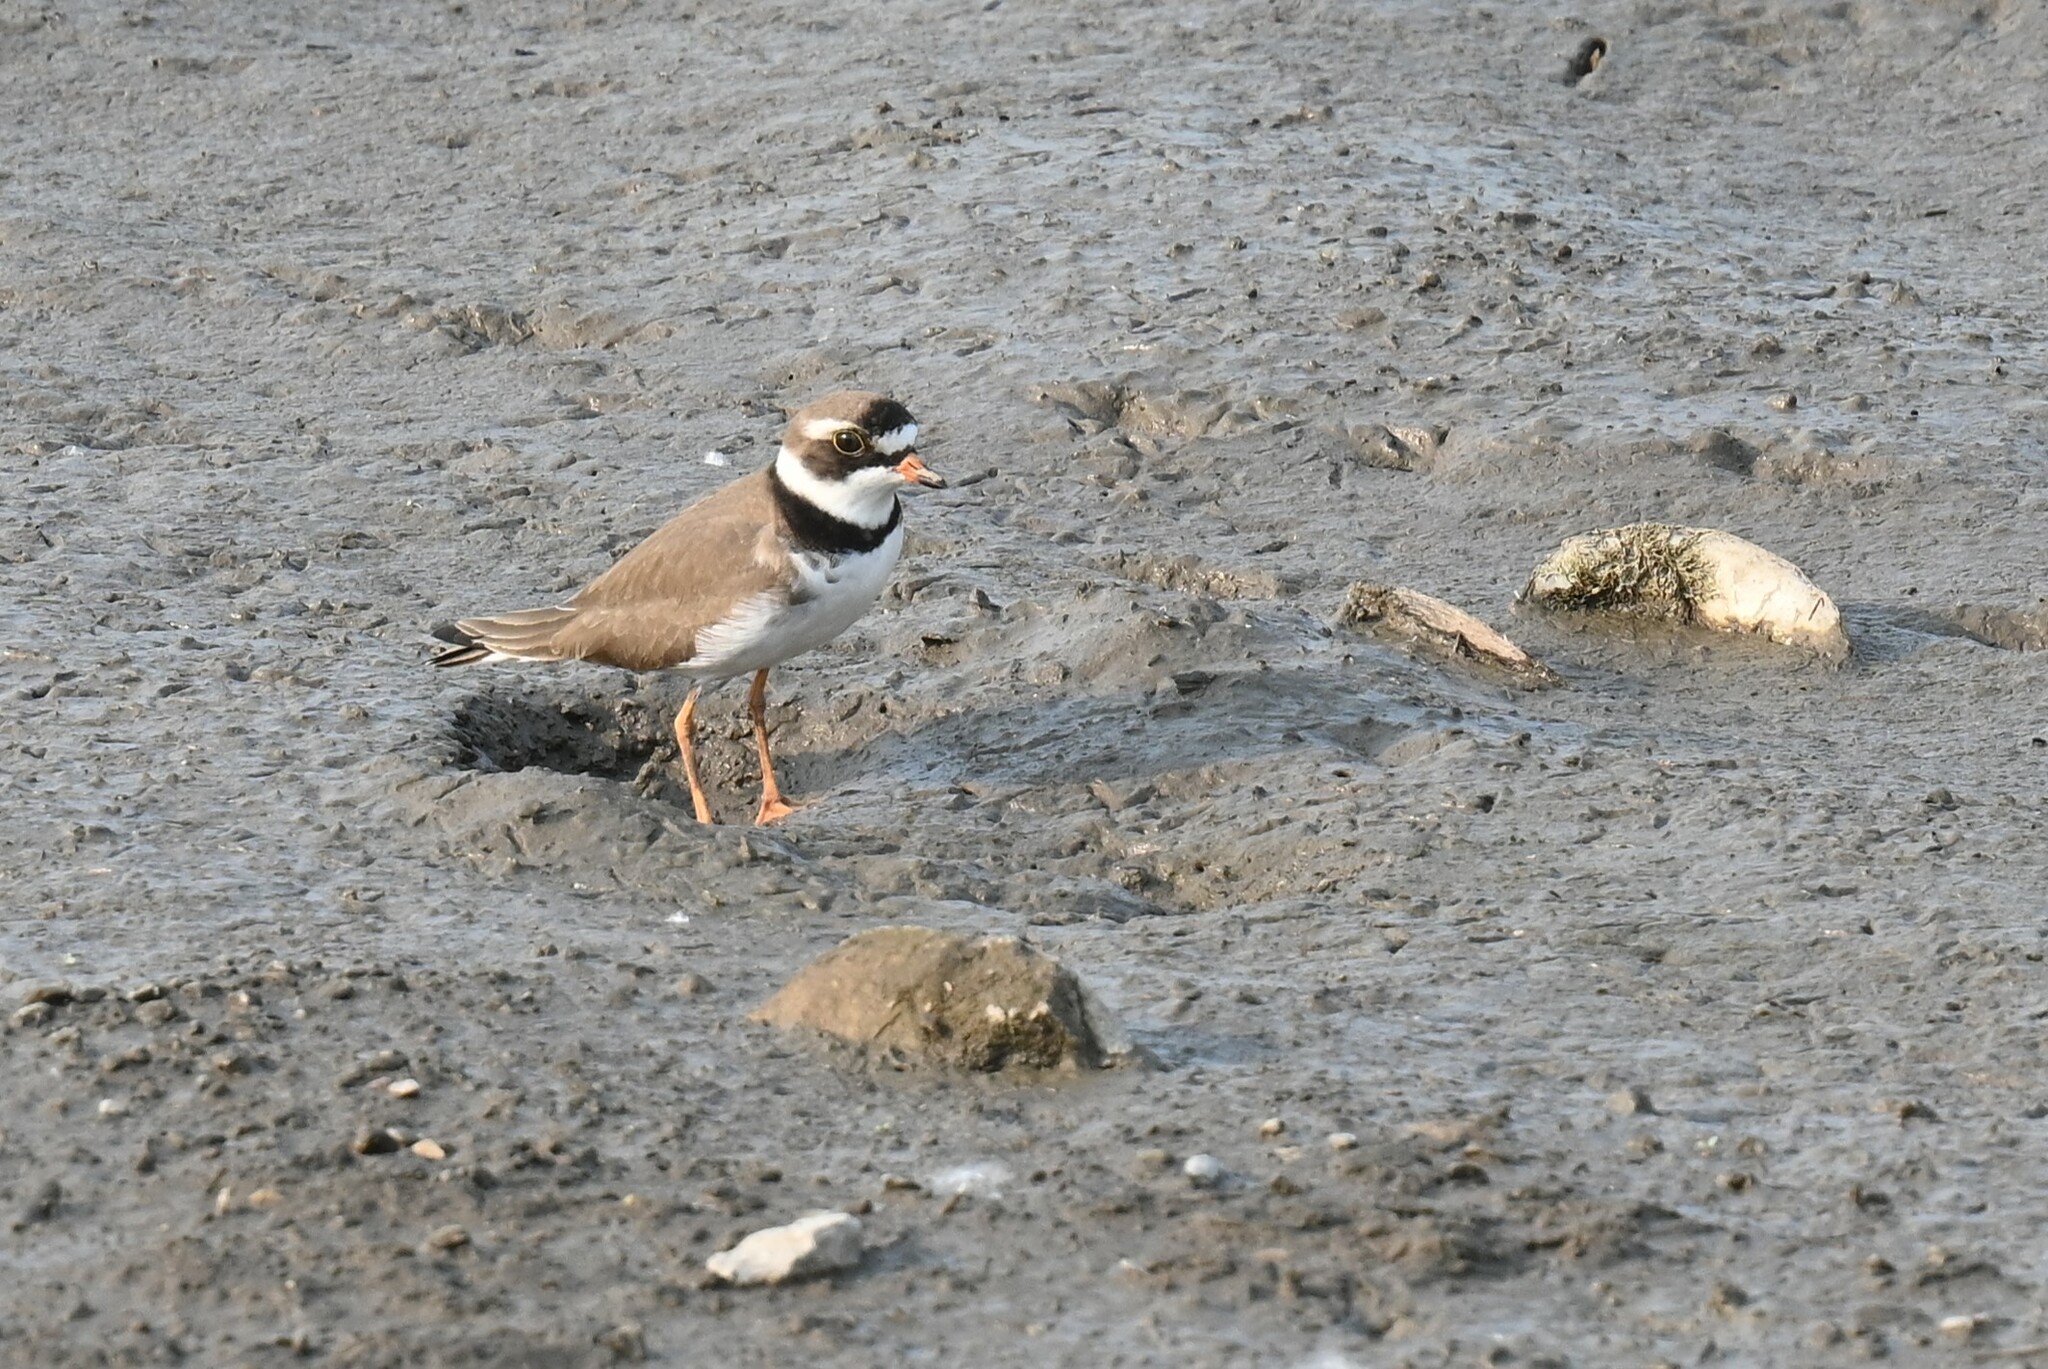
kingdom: Animalia
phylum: Chordata
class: Aves
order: Charadriiformes
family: Charadriidae
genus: Charadrius
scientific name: Charadrius semipalmatus
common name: Semipalmated plover
